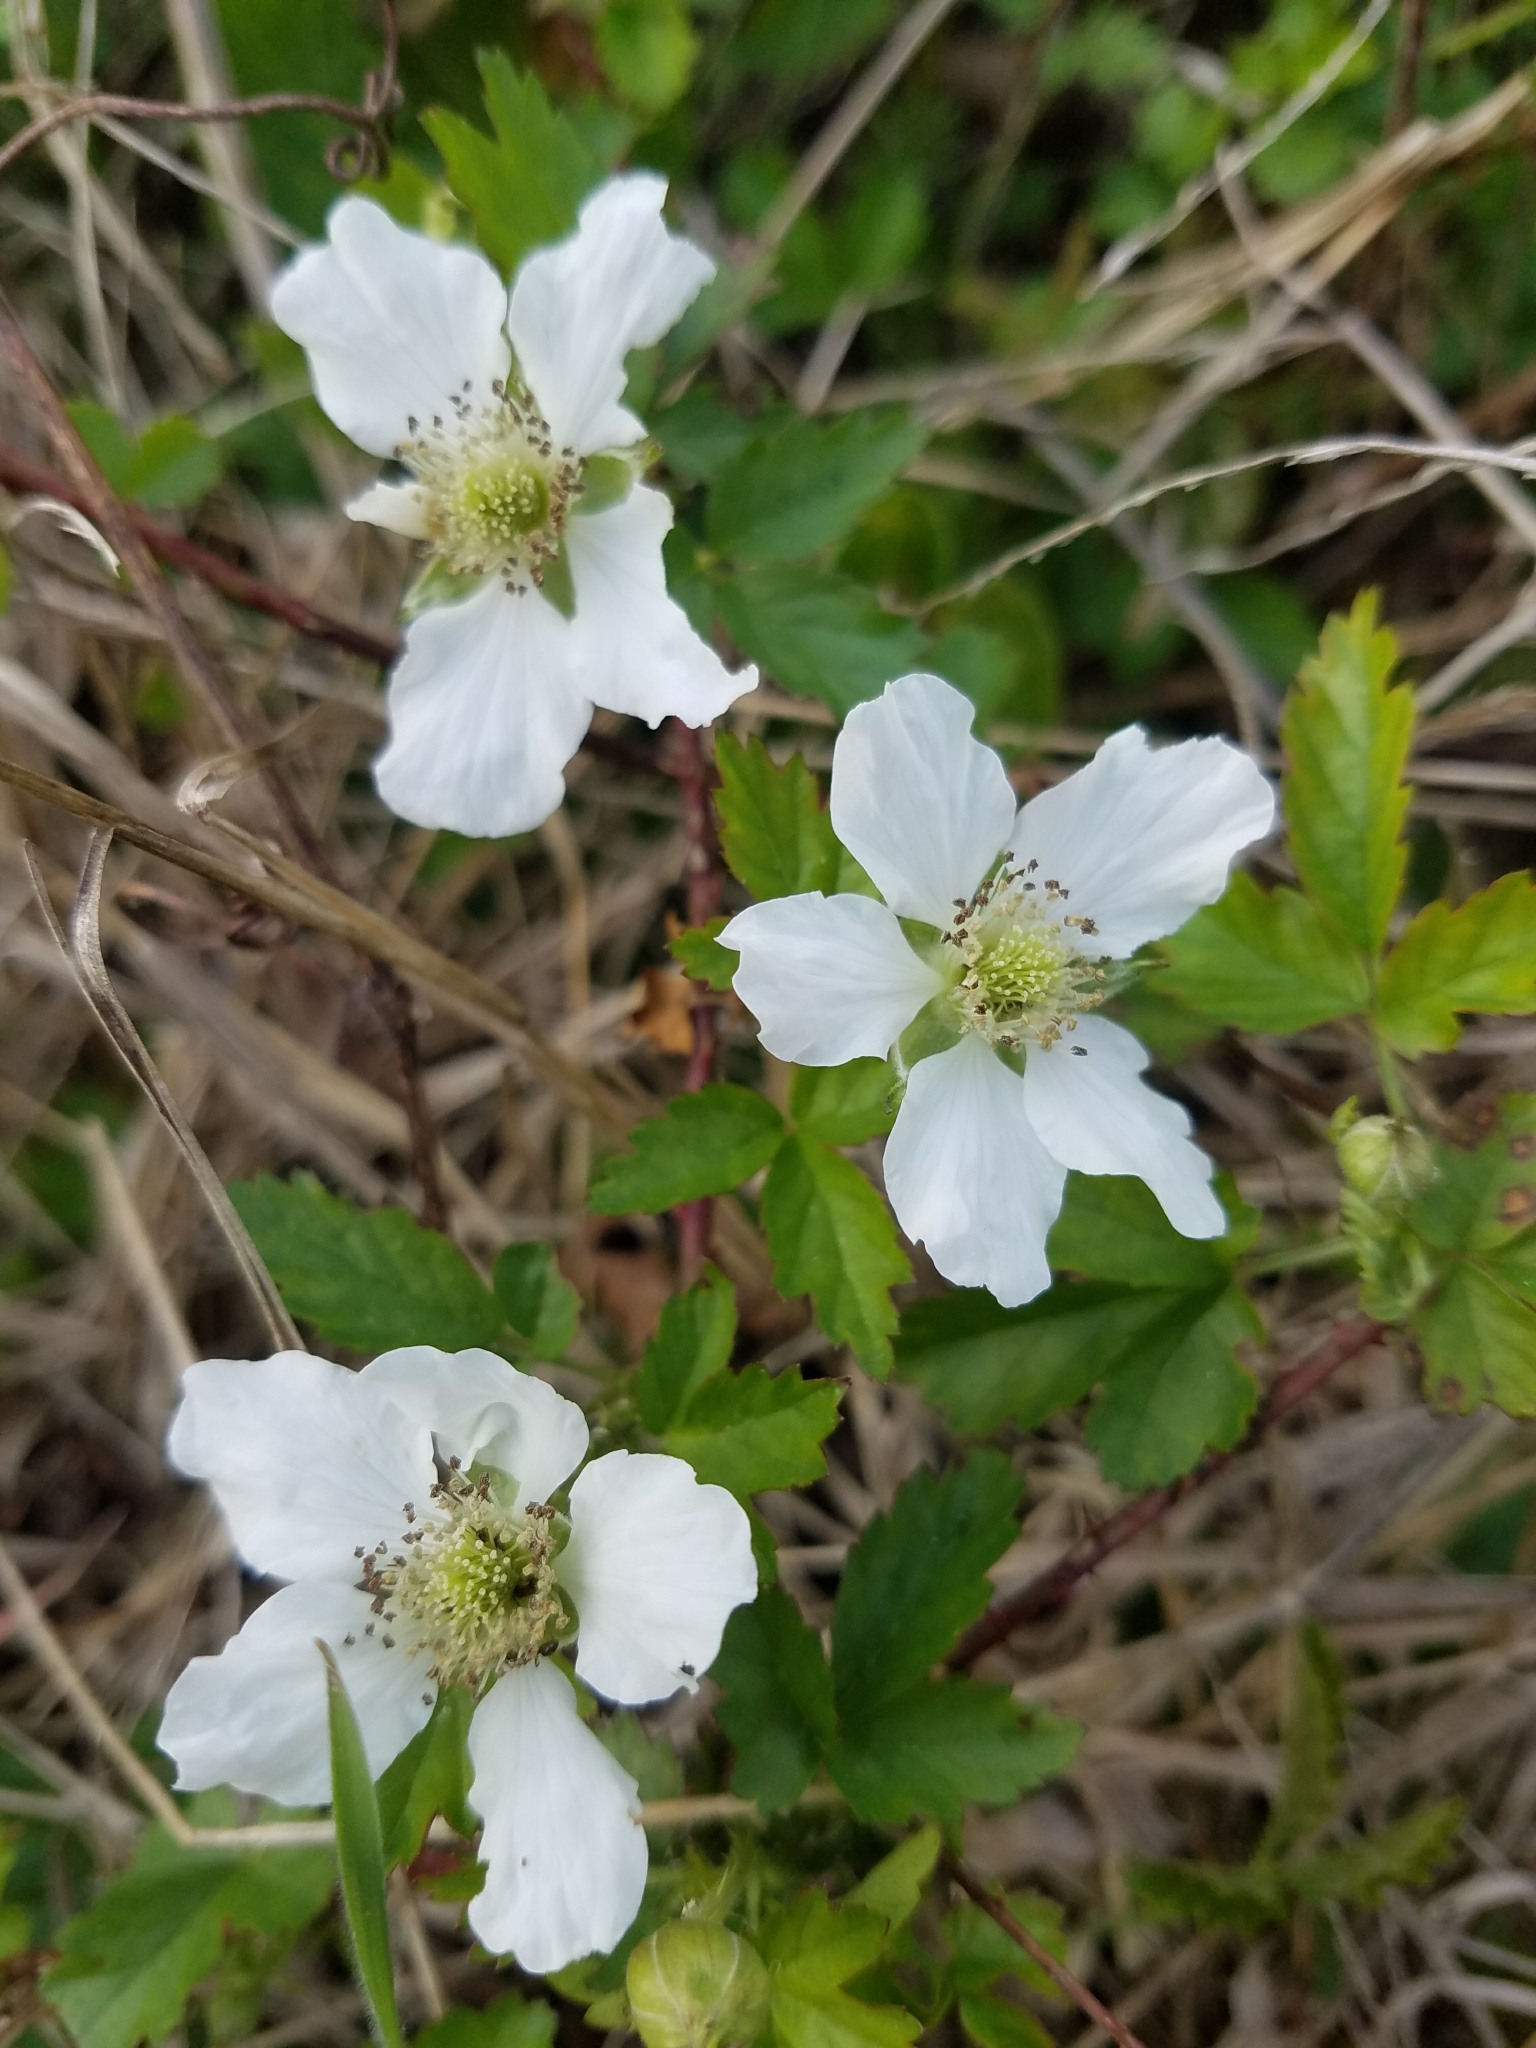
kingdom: Plantae
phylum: Tracheophyta
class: Magnoliopsida
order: Rosales
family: Rosaceae
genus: Rubus
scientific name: Rubus trivialis
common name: Southern dewberry
